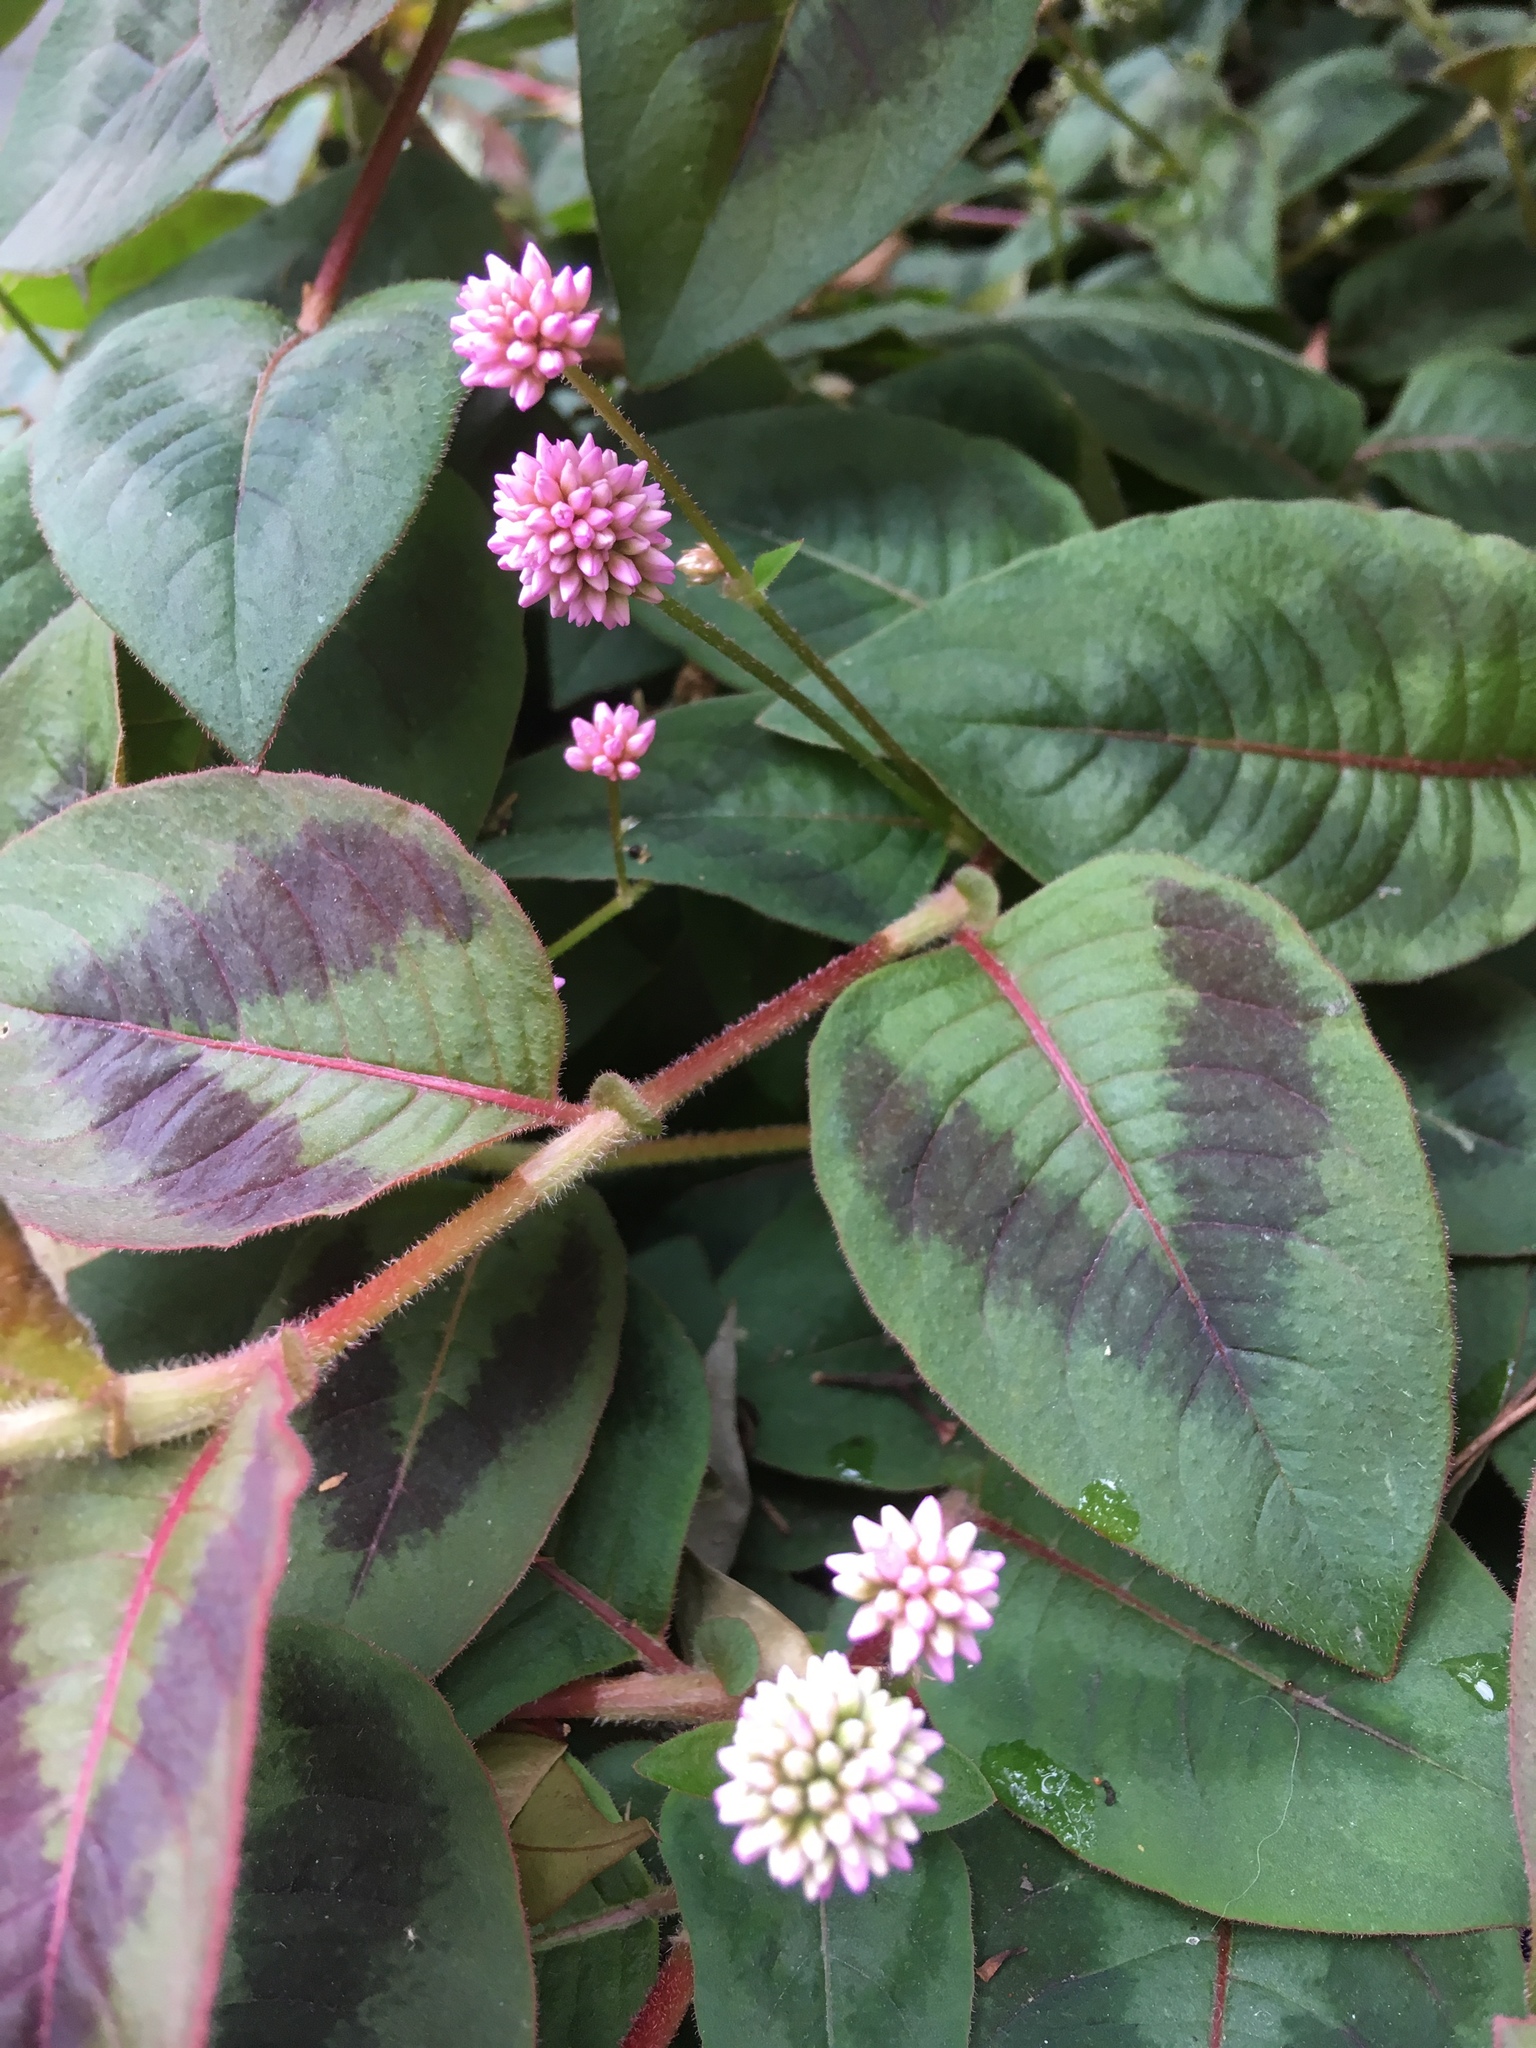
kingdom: Plantae
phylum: Tracheophyta
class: Magnoliopsida
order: Caryophyllales
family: Polygonaceae
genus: Persicaria
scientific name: Persicaria capitata
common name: Pinkhead smartweed
